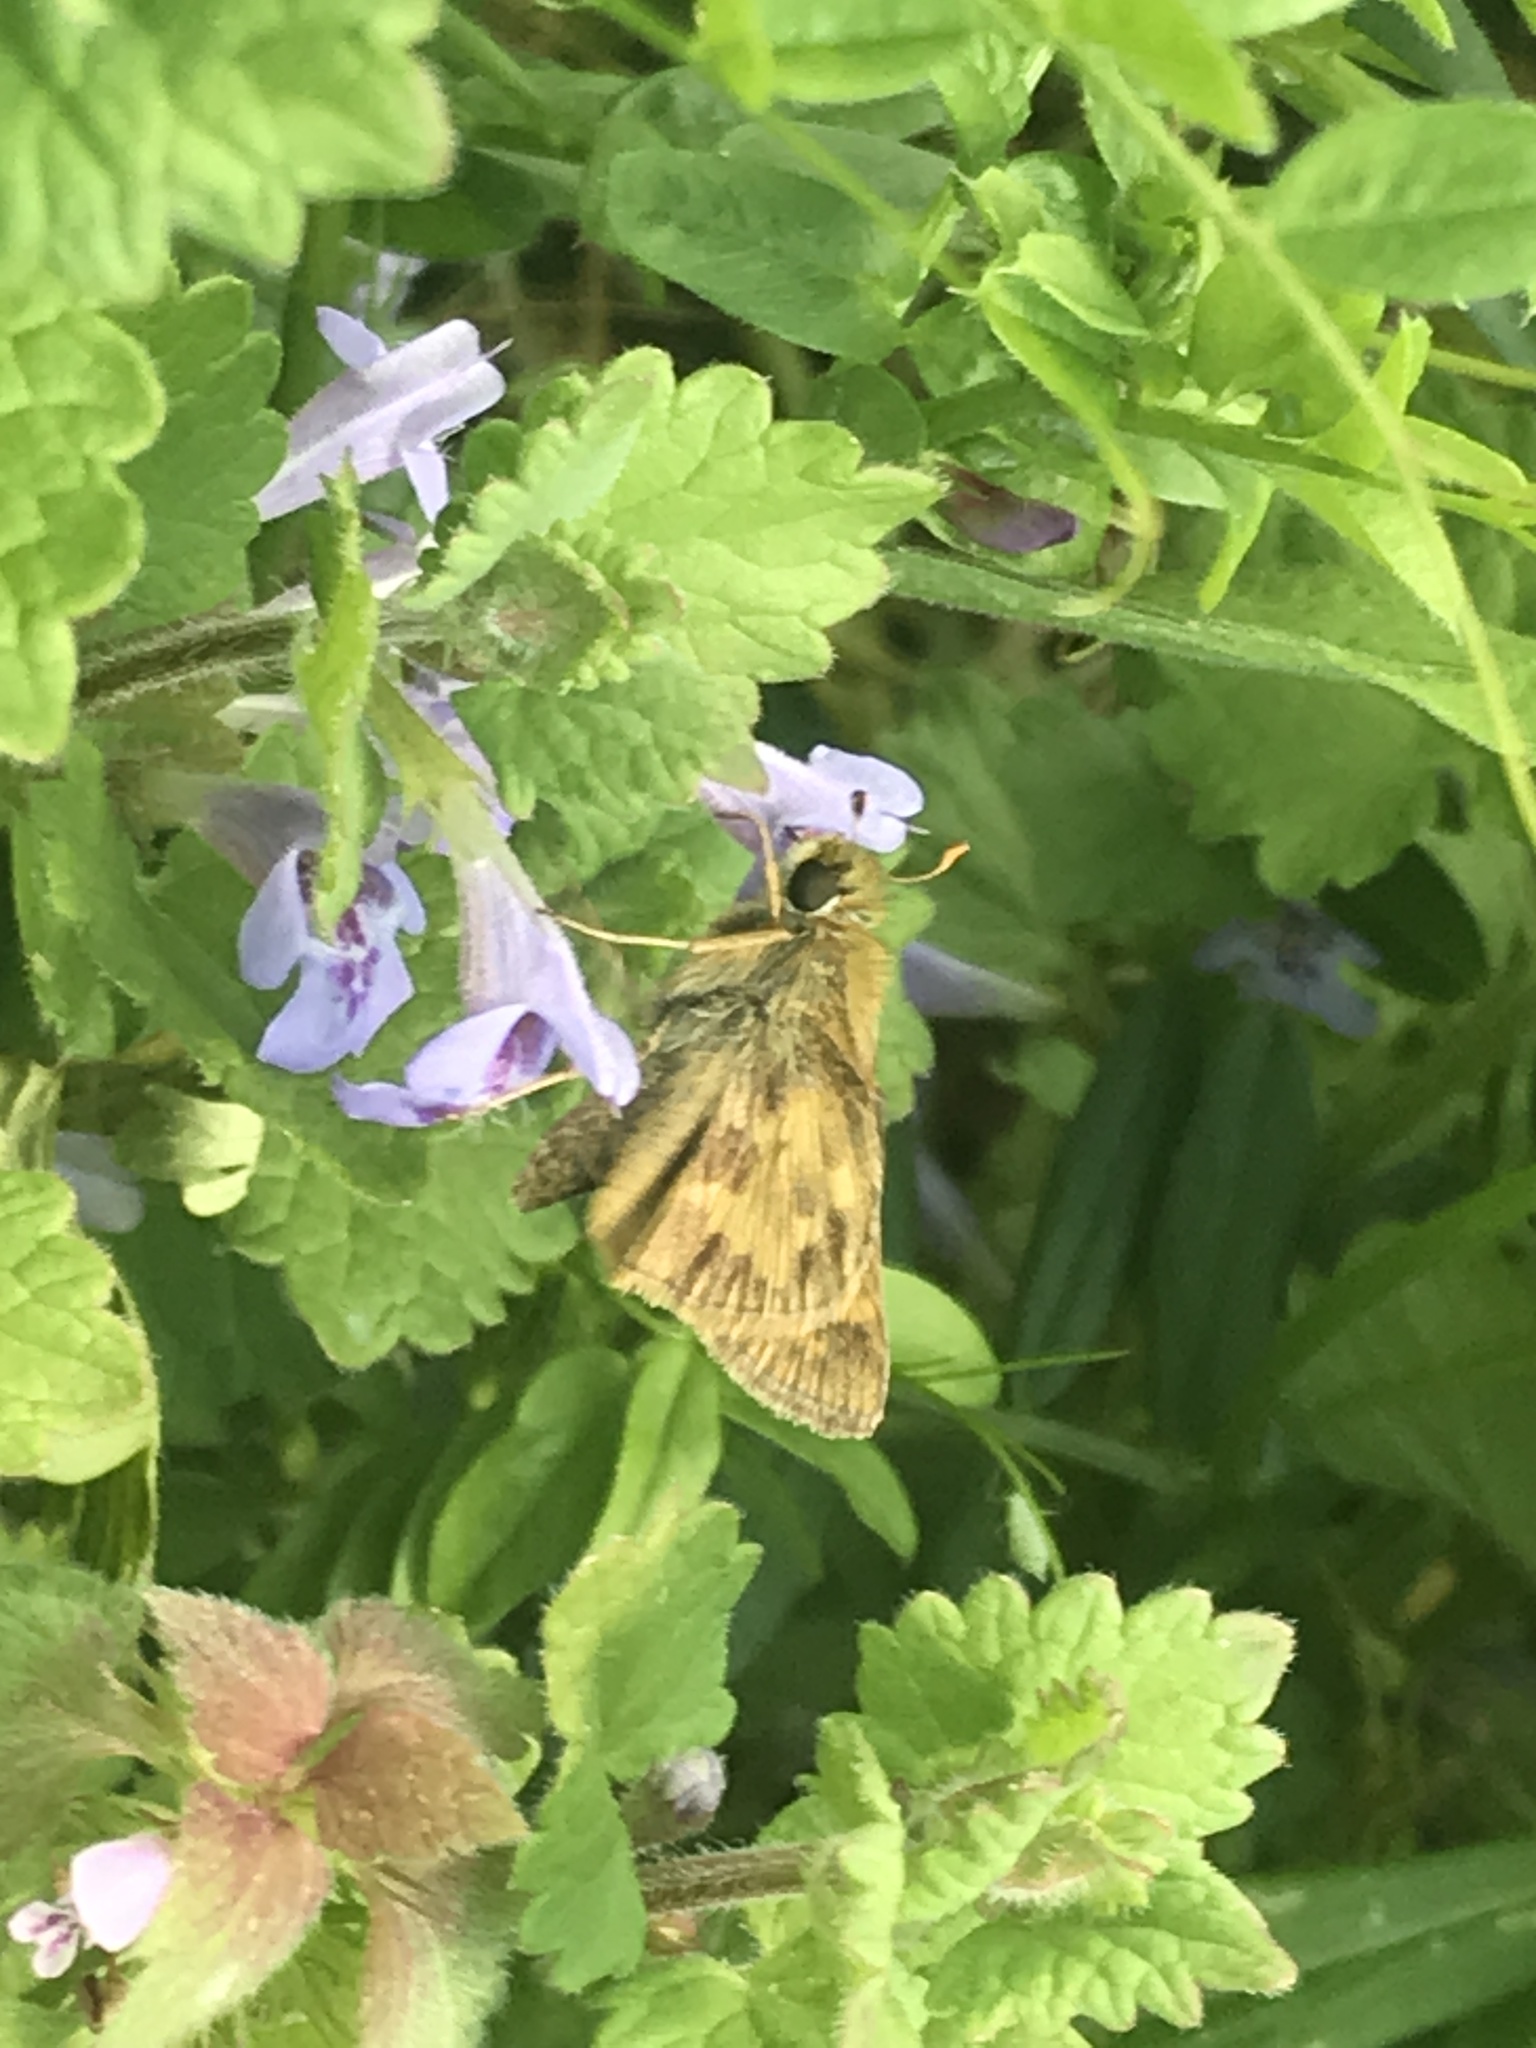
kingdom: Animalia
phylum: Arthropoda
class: Insecta
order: Lepidoptera
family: Hesperiidae
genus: Atalopedes
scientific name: Atalopedes
